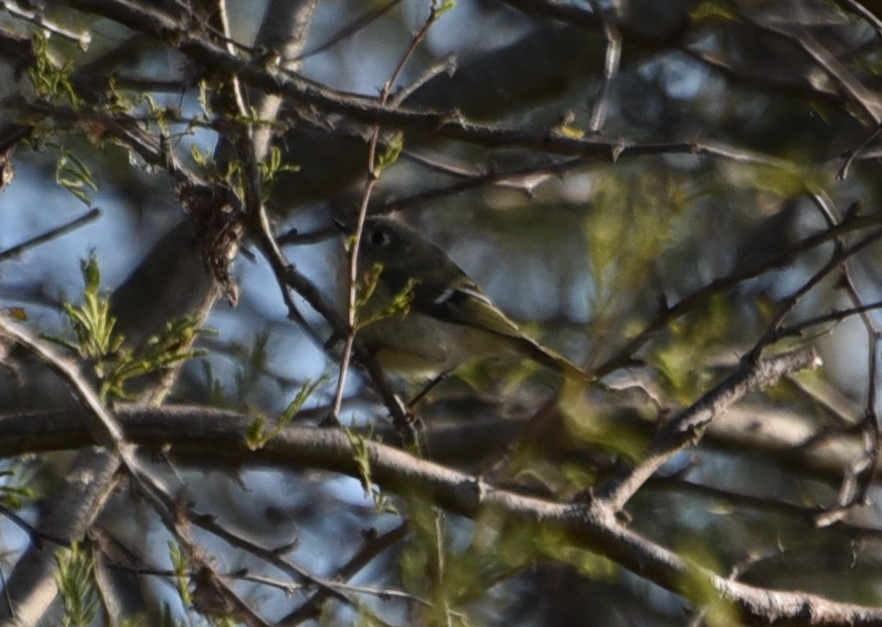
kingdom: Animalia
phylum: Chordata
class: Aves
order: Passeriformes
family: Regulidae
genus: Regulus
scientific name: Regulus calendula
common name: Ruby-crowned kinglet
